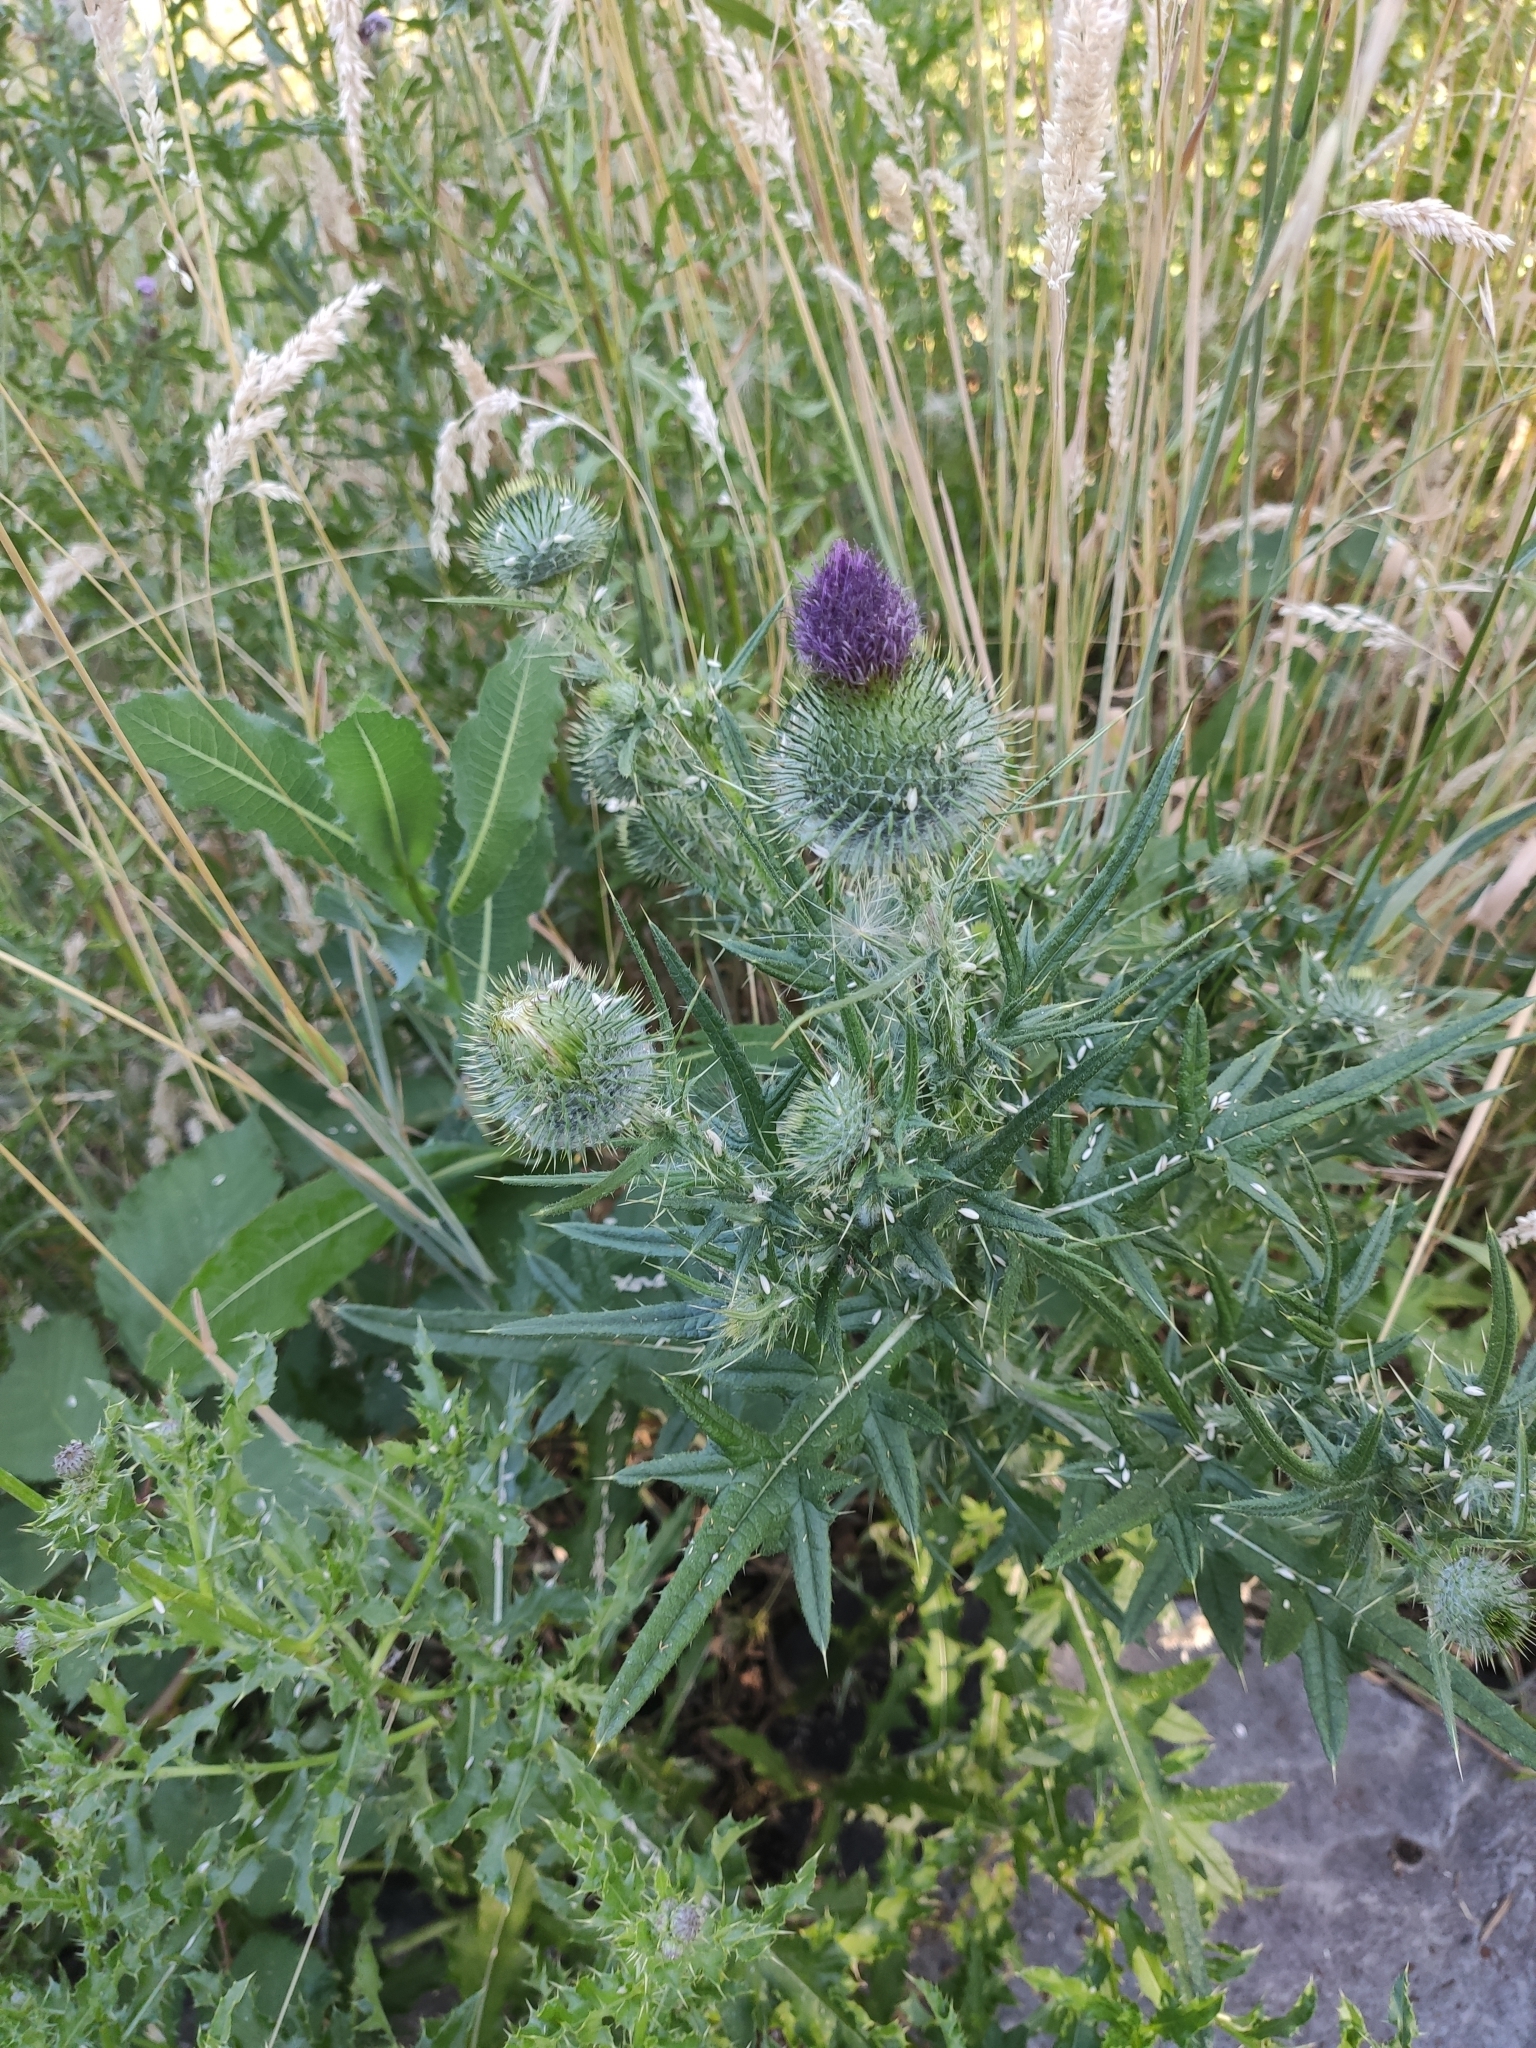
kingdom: Plantae
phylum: Tracheophyta
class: Magnoliopsida
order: Asterales
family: Asteraceae
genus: Cirsium
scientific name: Cirsium vulgare
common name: Bull thistle
